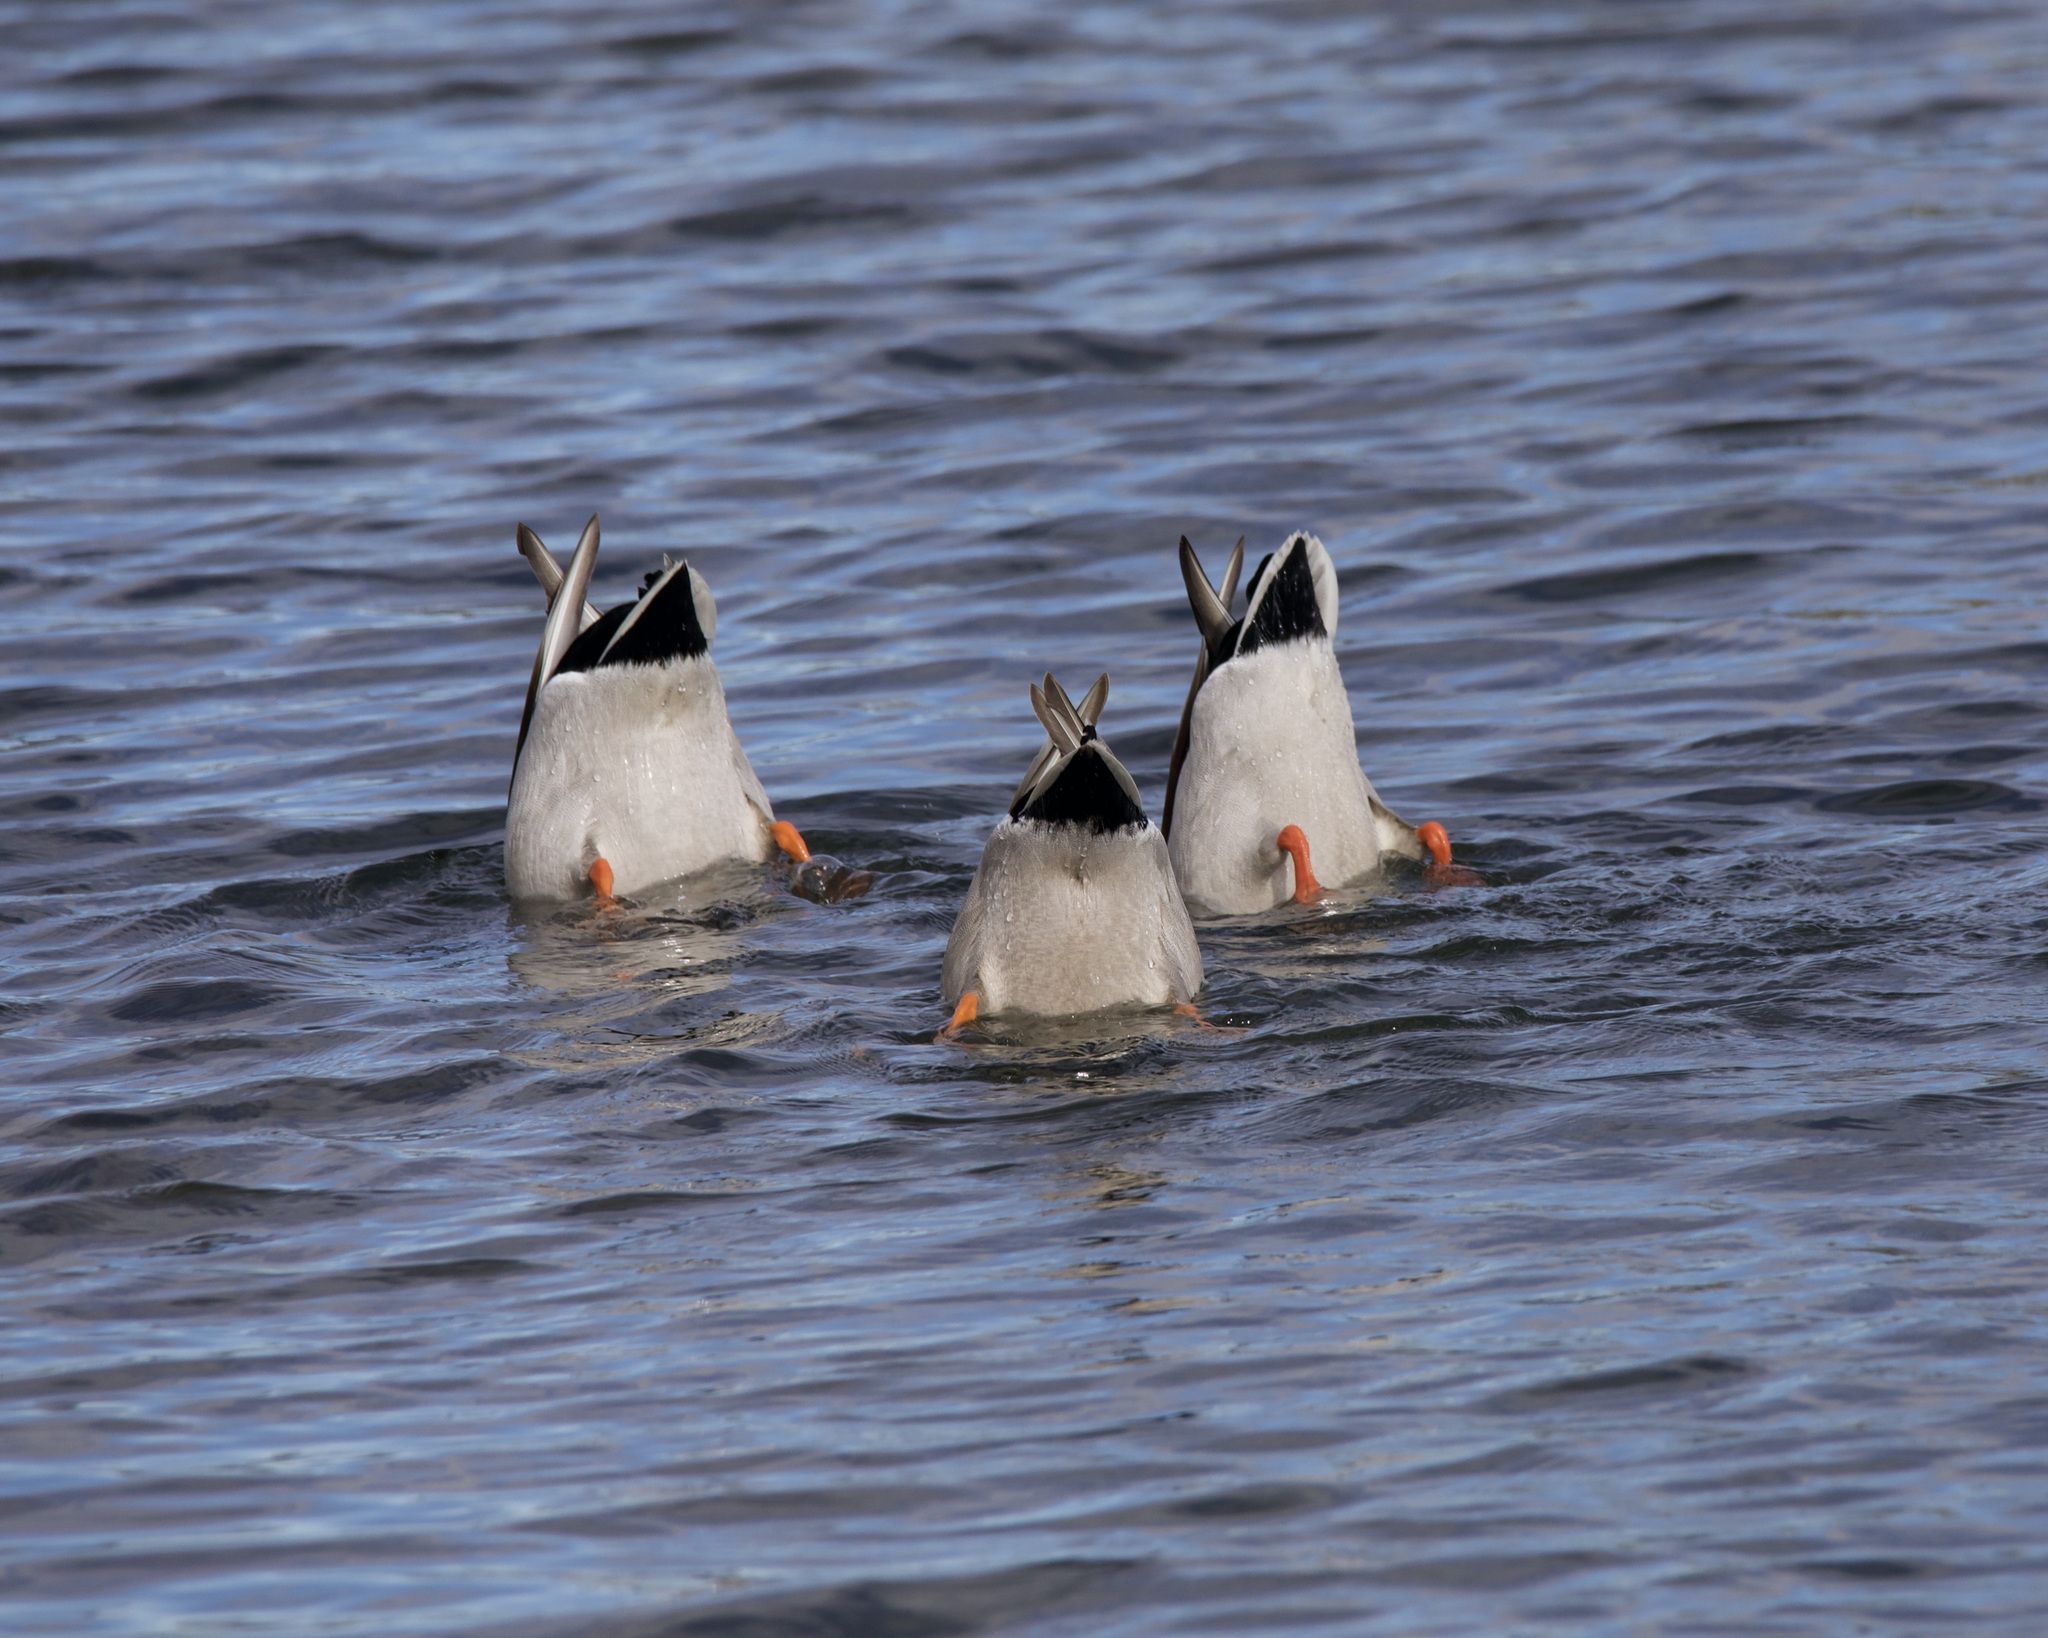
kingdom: Animalia
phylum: Chordata
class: Aves
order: Anseriformes
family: Anatidae
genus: Anas
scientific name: Anas platyrhynchos
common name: Mallard
